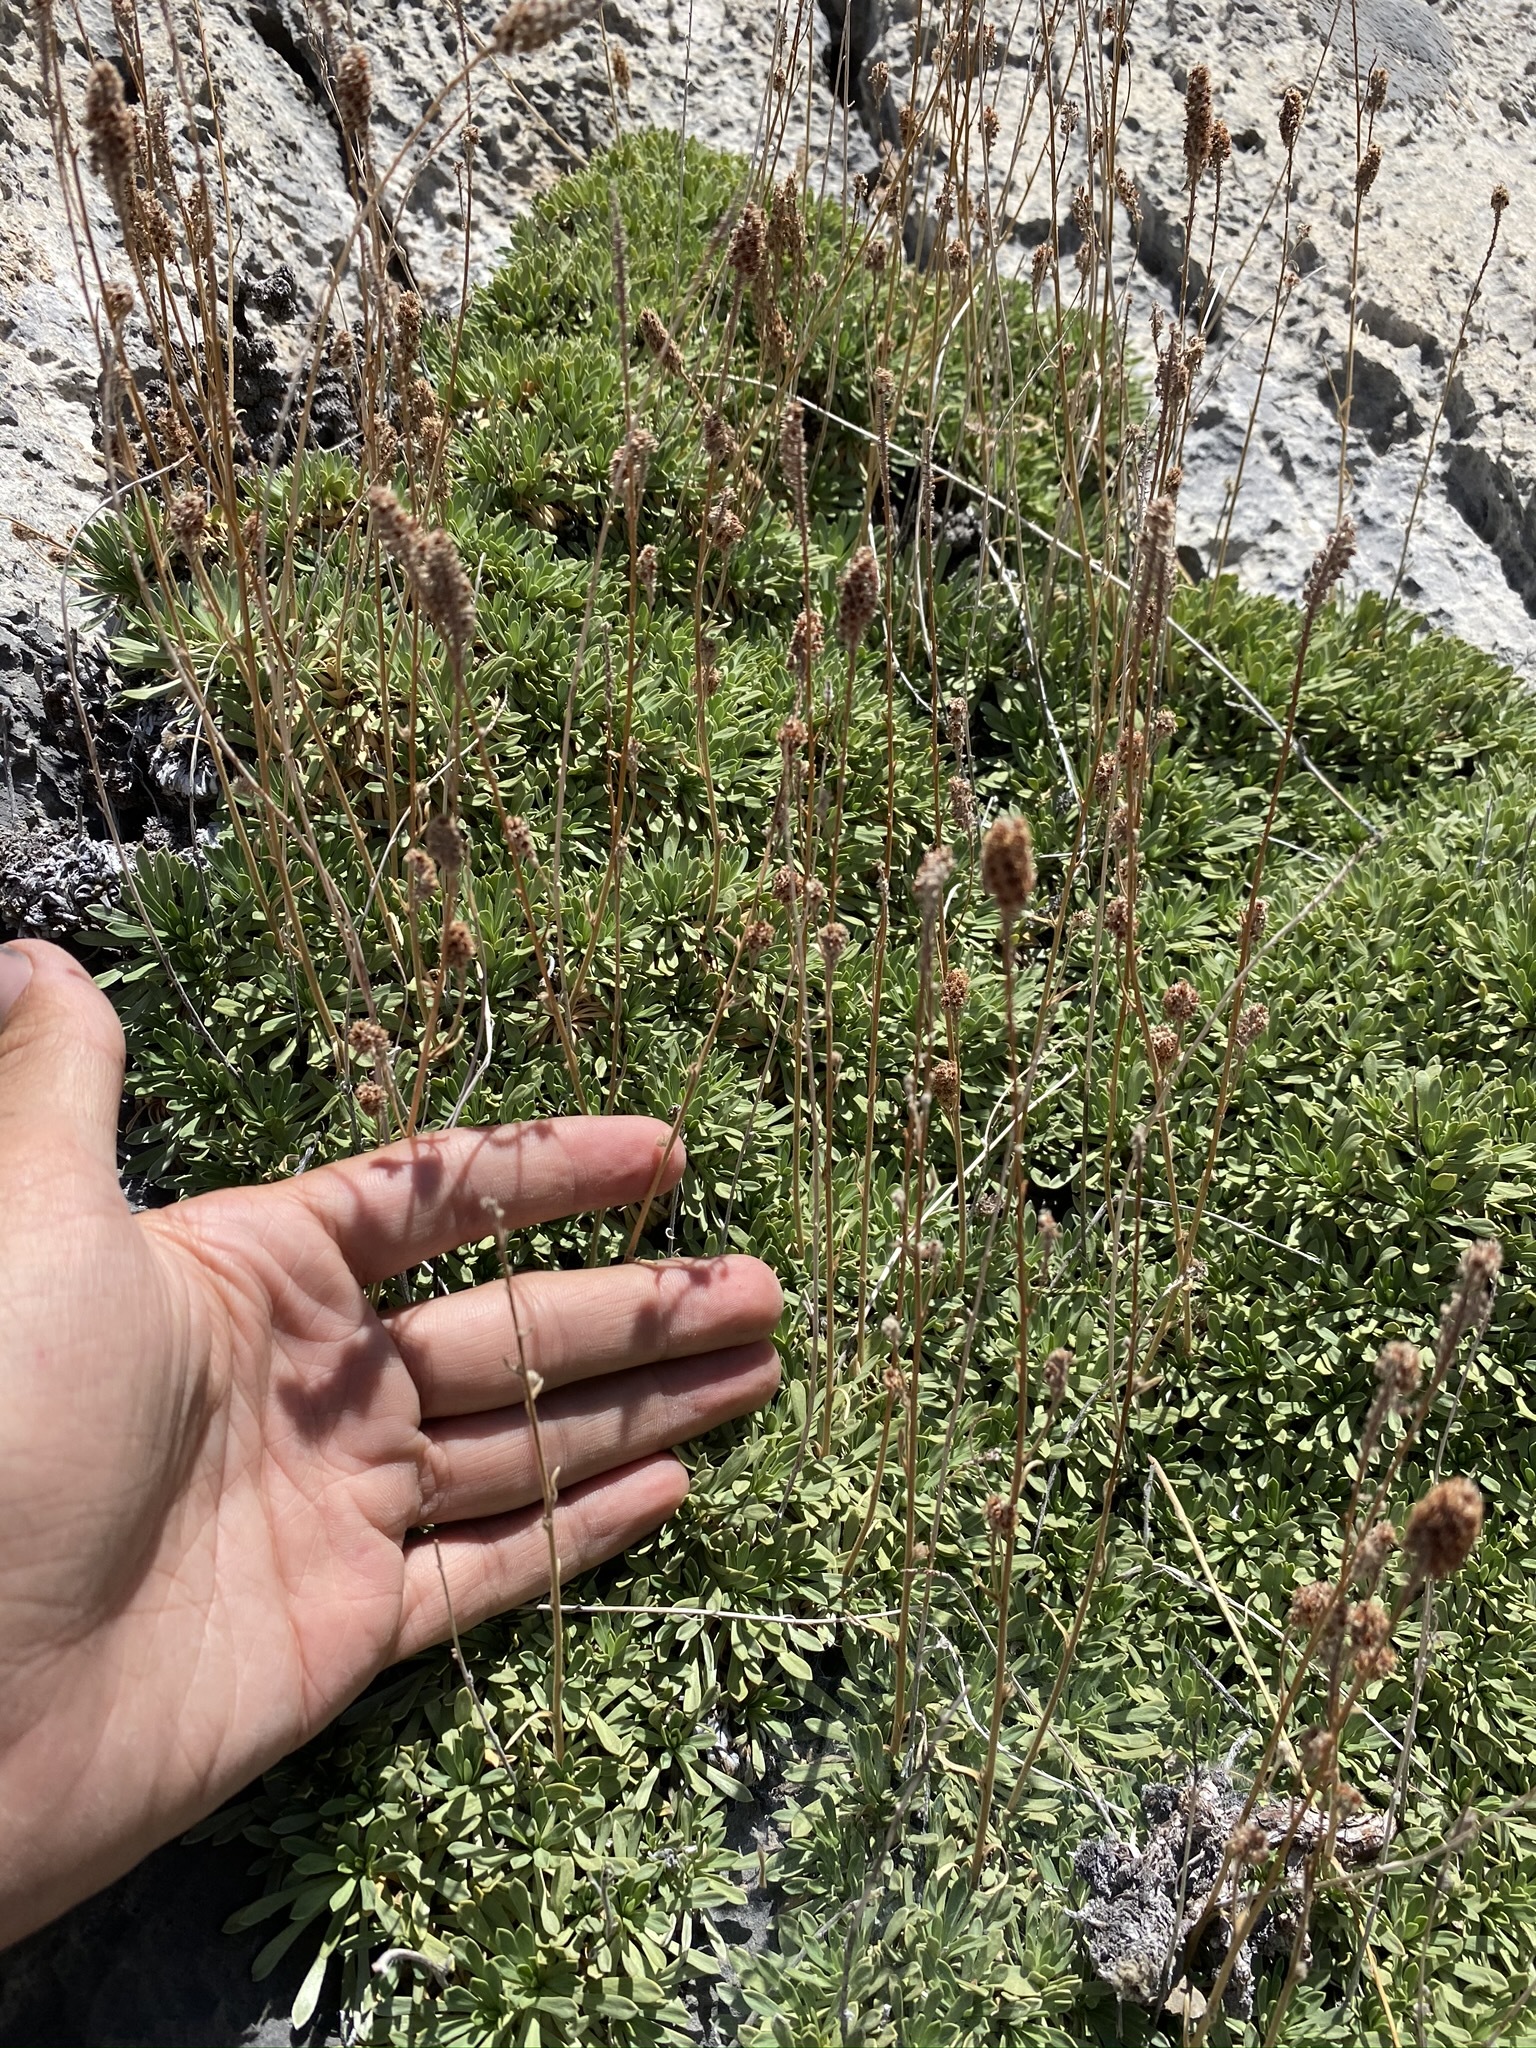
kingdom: Plantae
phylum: Tracheophyta
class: Magnoliopsida
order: Rosales
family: Rosaceae
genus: Petrophytum
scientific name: Petrophytum caespitosum
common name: Mat rockspirea
